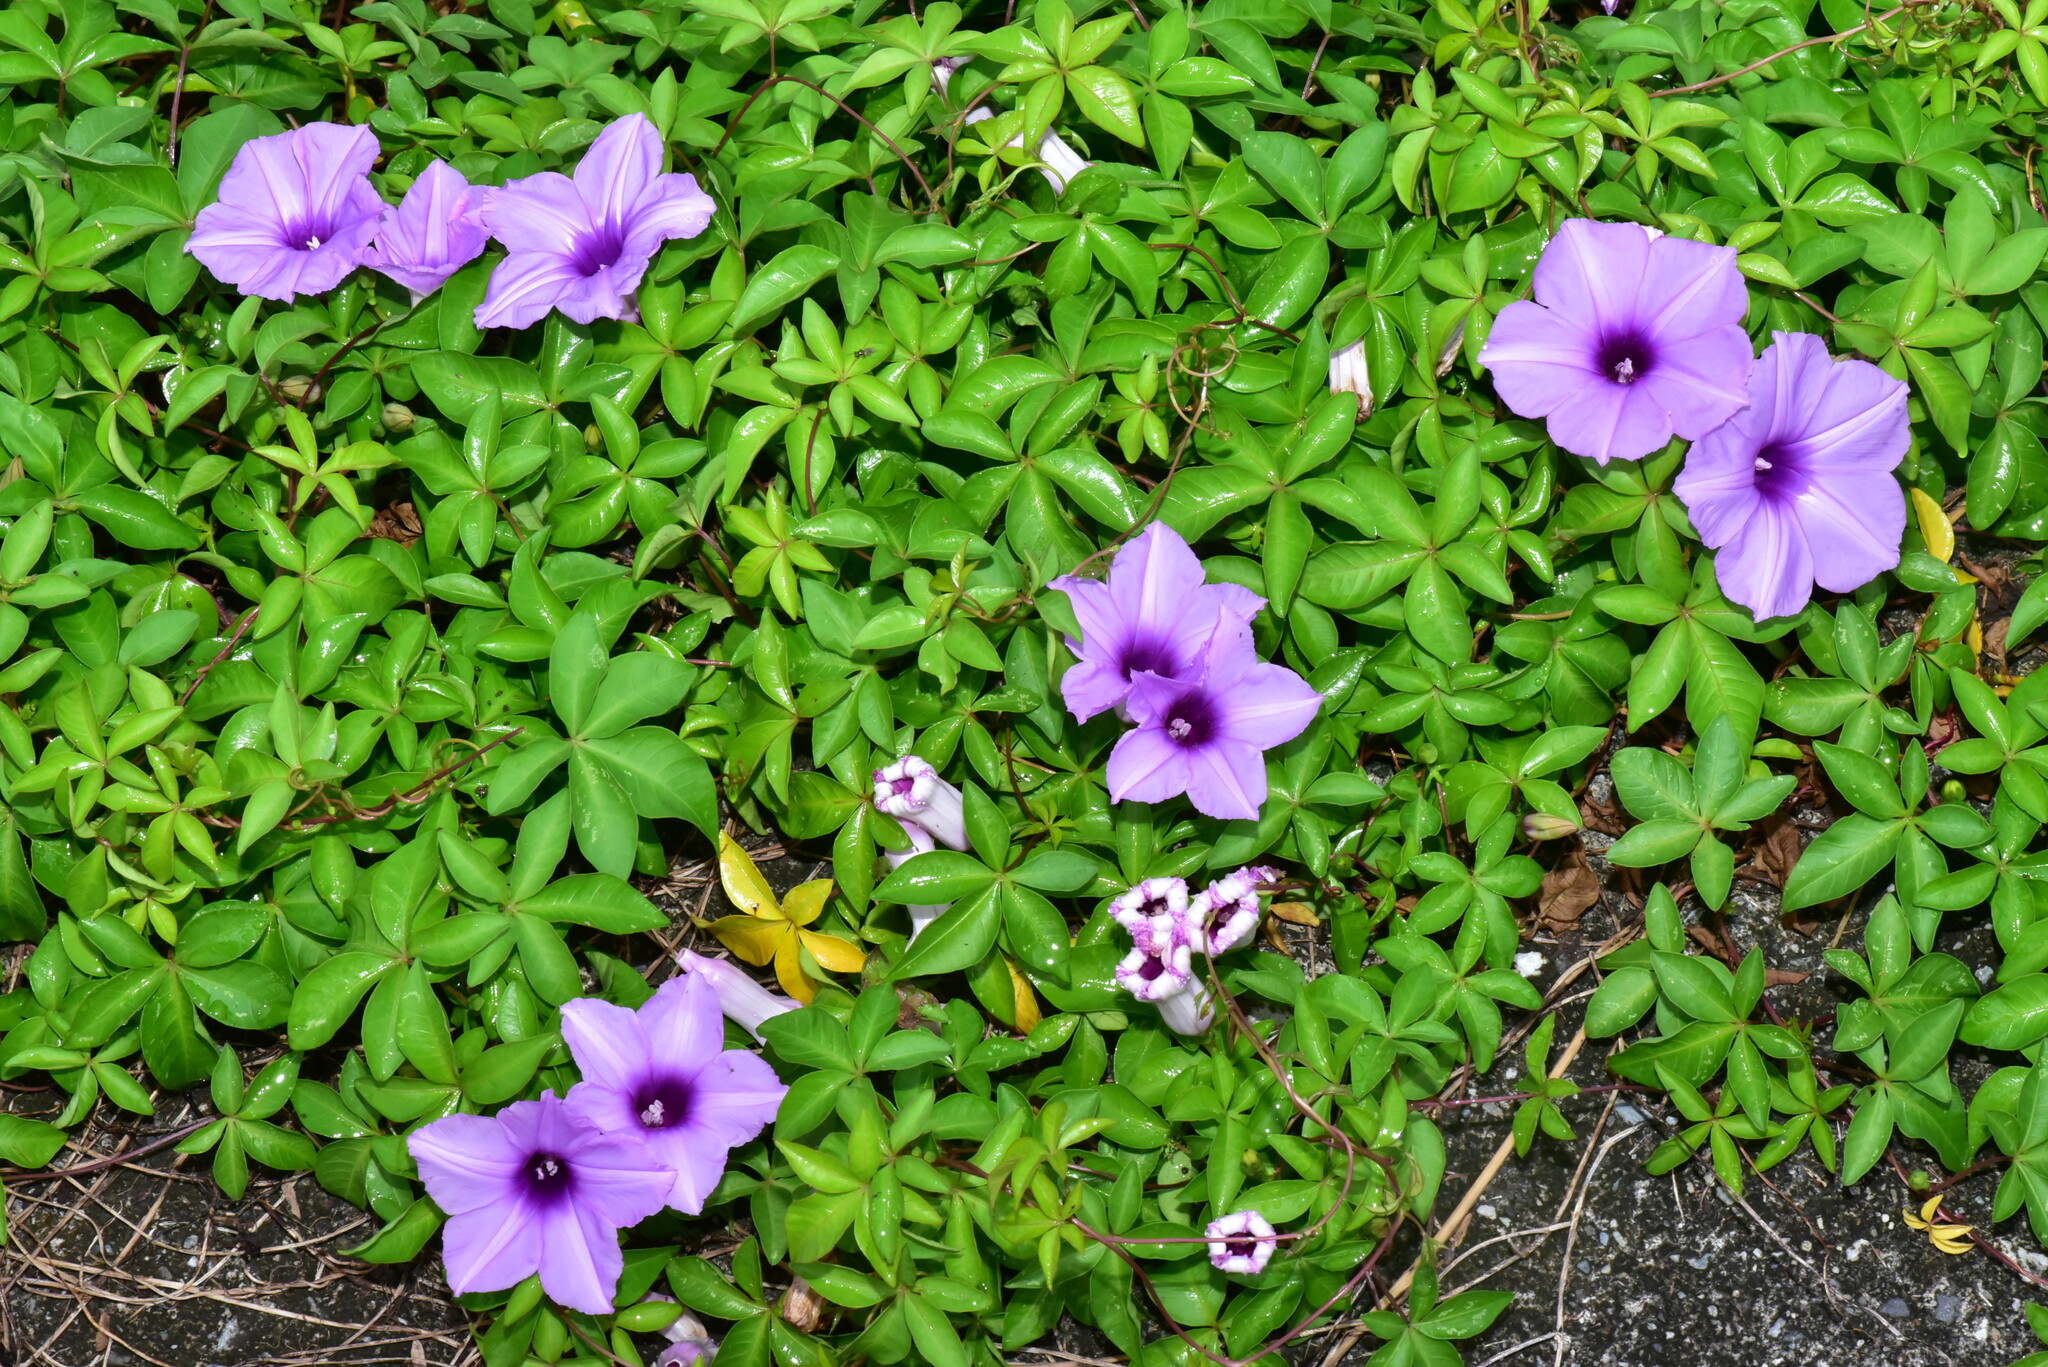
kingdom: Plantae
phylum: Tracheophyta
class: Magnoliopsida
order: Solanales
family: Convolvulaceae
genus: Ipomoea
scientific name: Ipomoea cairica
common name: Mile a minute vine
